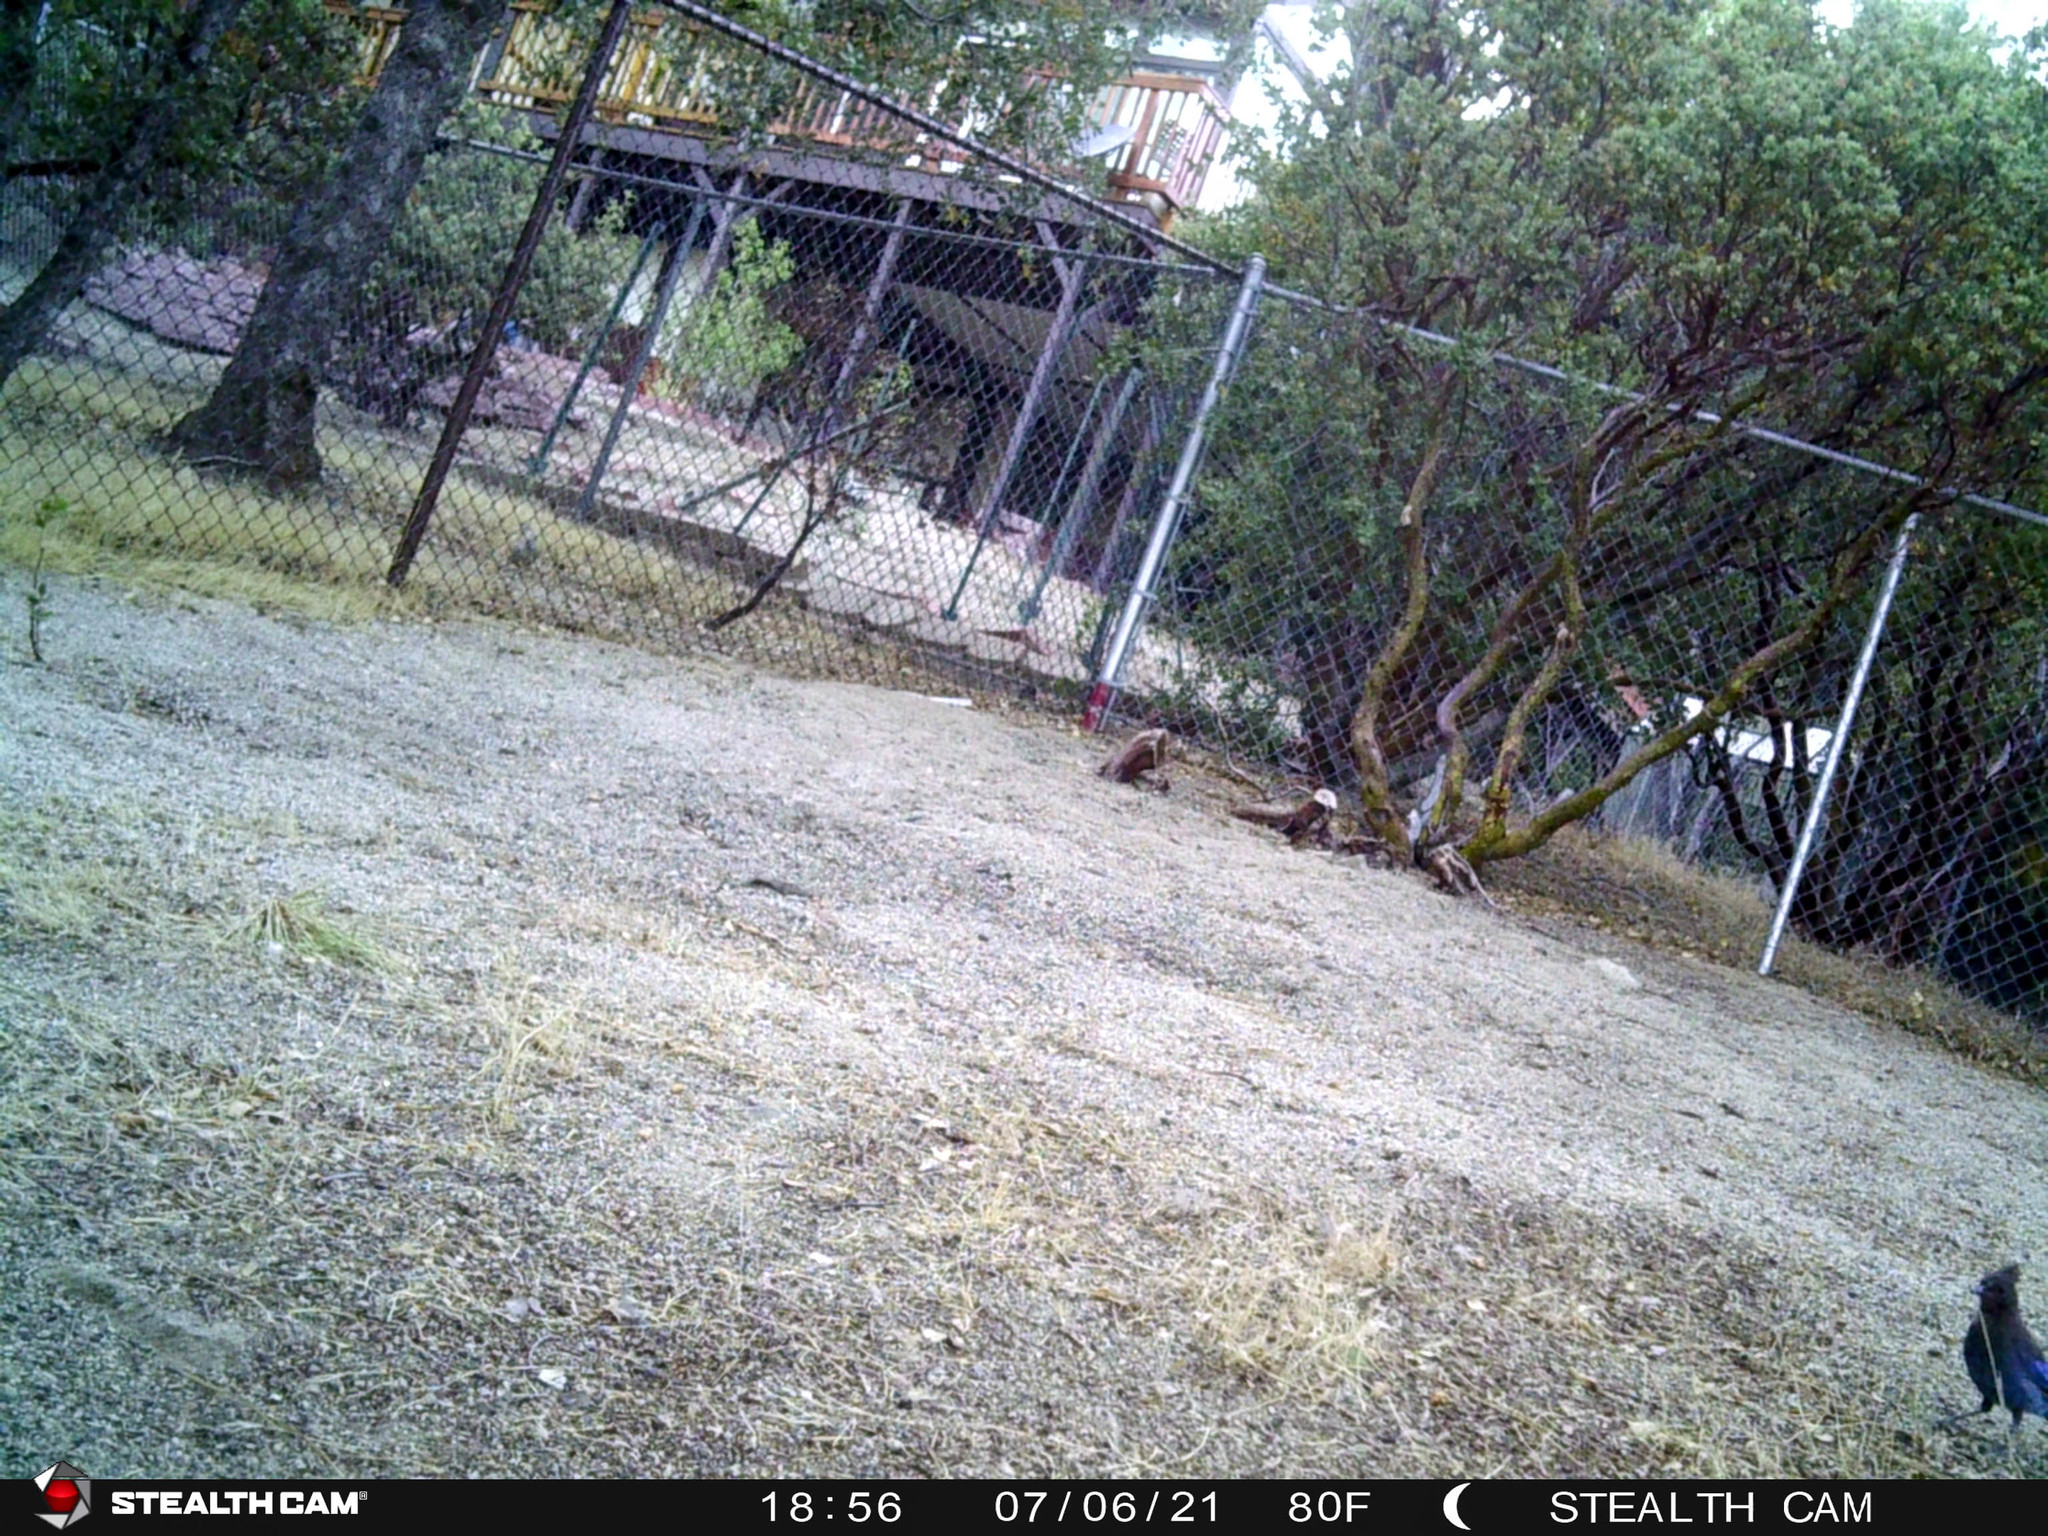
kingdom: Animalia
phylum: Chordata
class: Aves
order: Passeriformes
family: Corvidae
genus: Cyanocitta
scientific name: Cyanocitta stelleri
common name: Steller's jay
